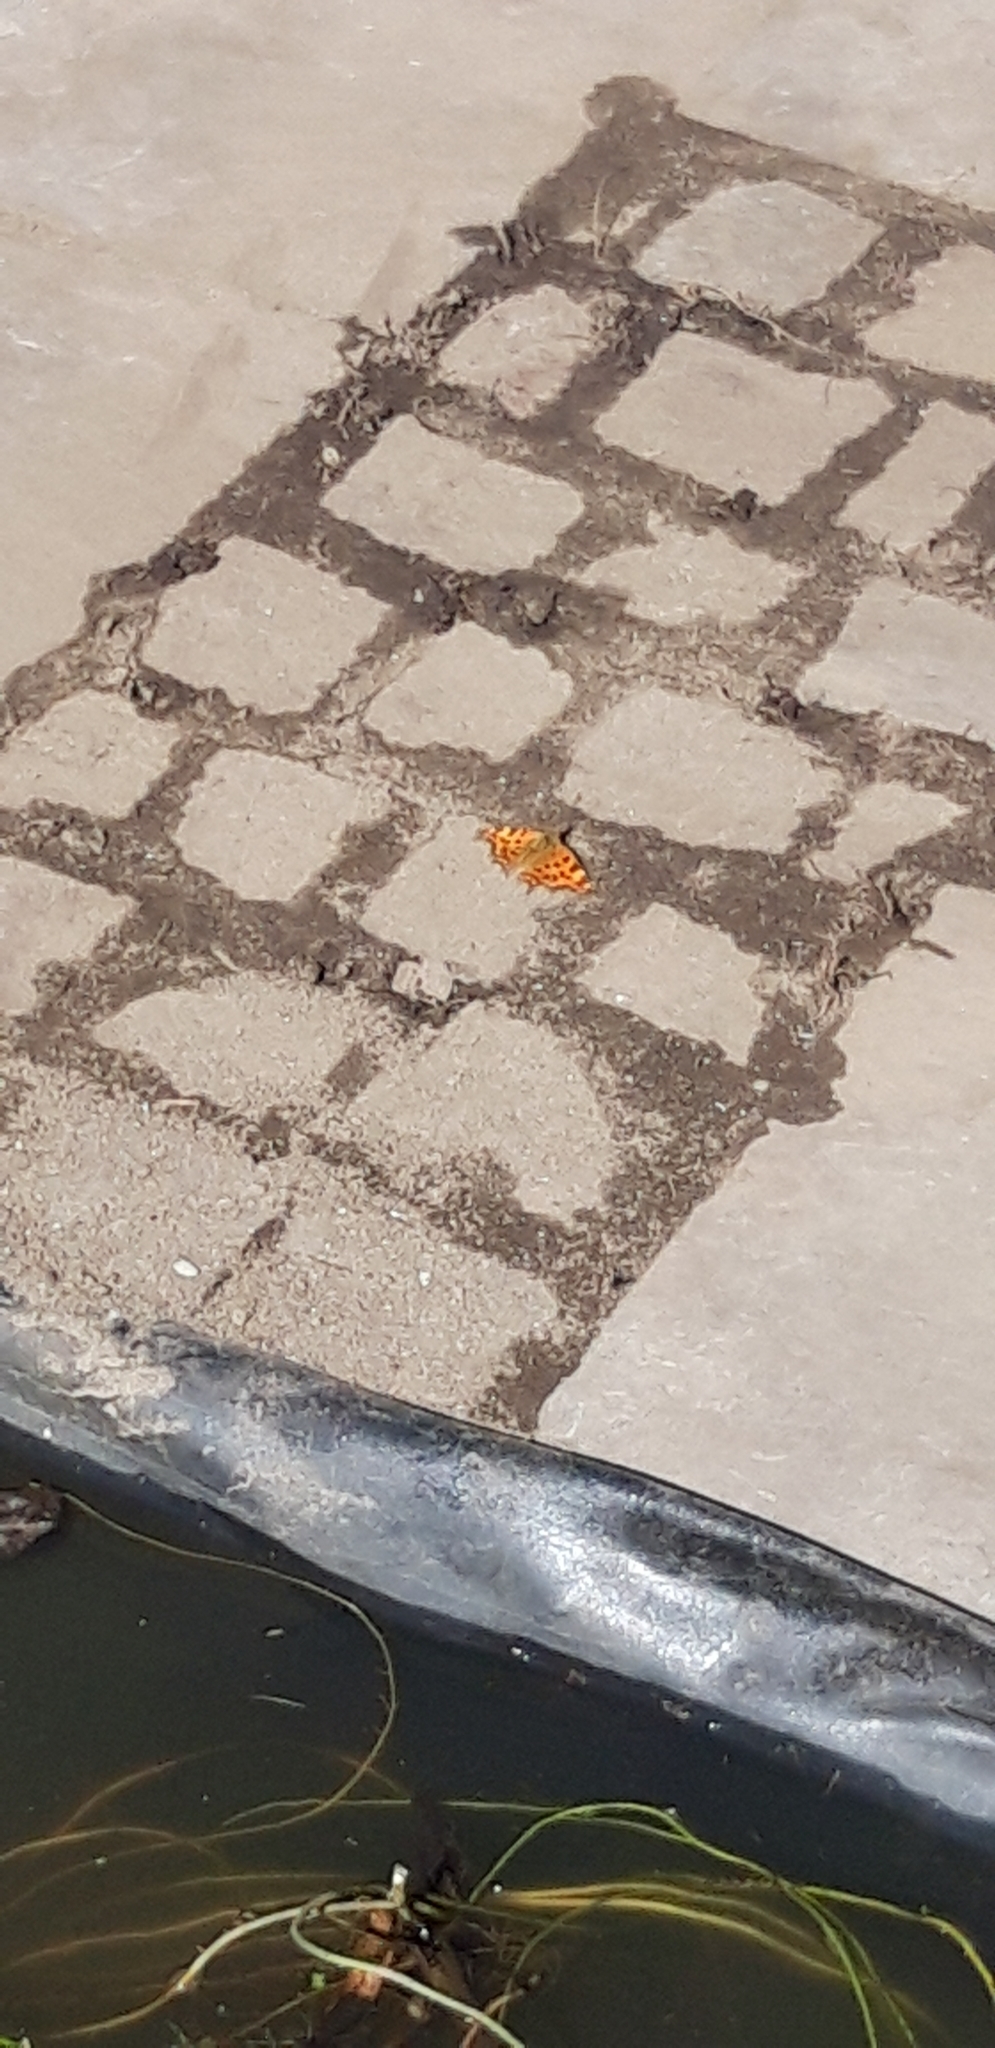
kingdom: Animalia
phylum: Arthropoda
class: Insecta
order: Lepidoptera
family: Nymphalidae
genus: Polygonia
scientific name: Polygonia c-album
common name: Comma
